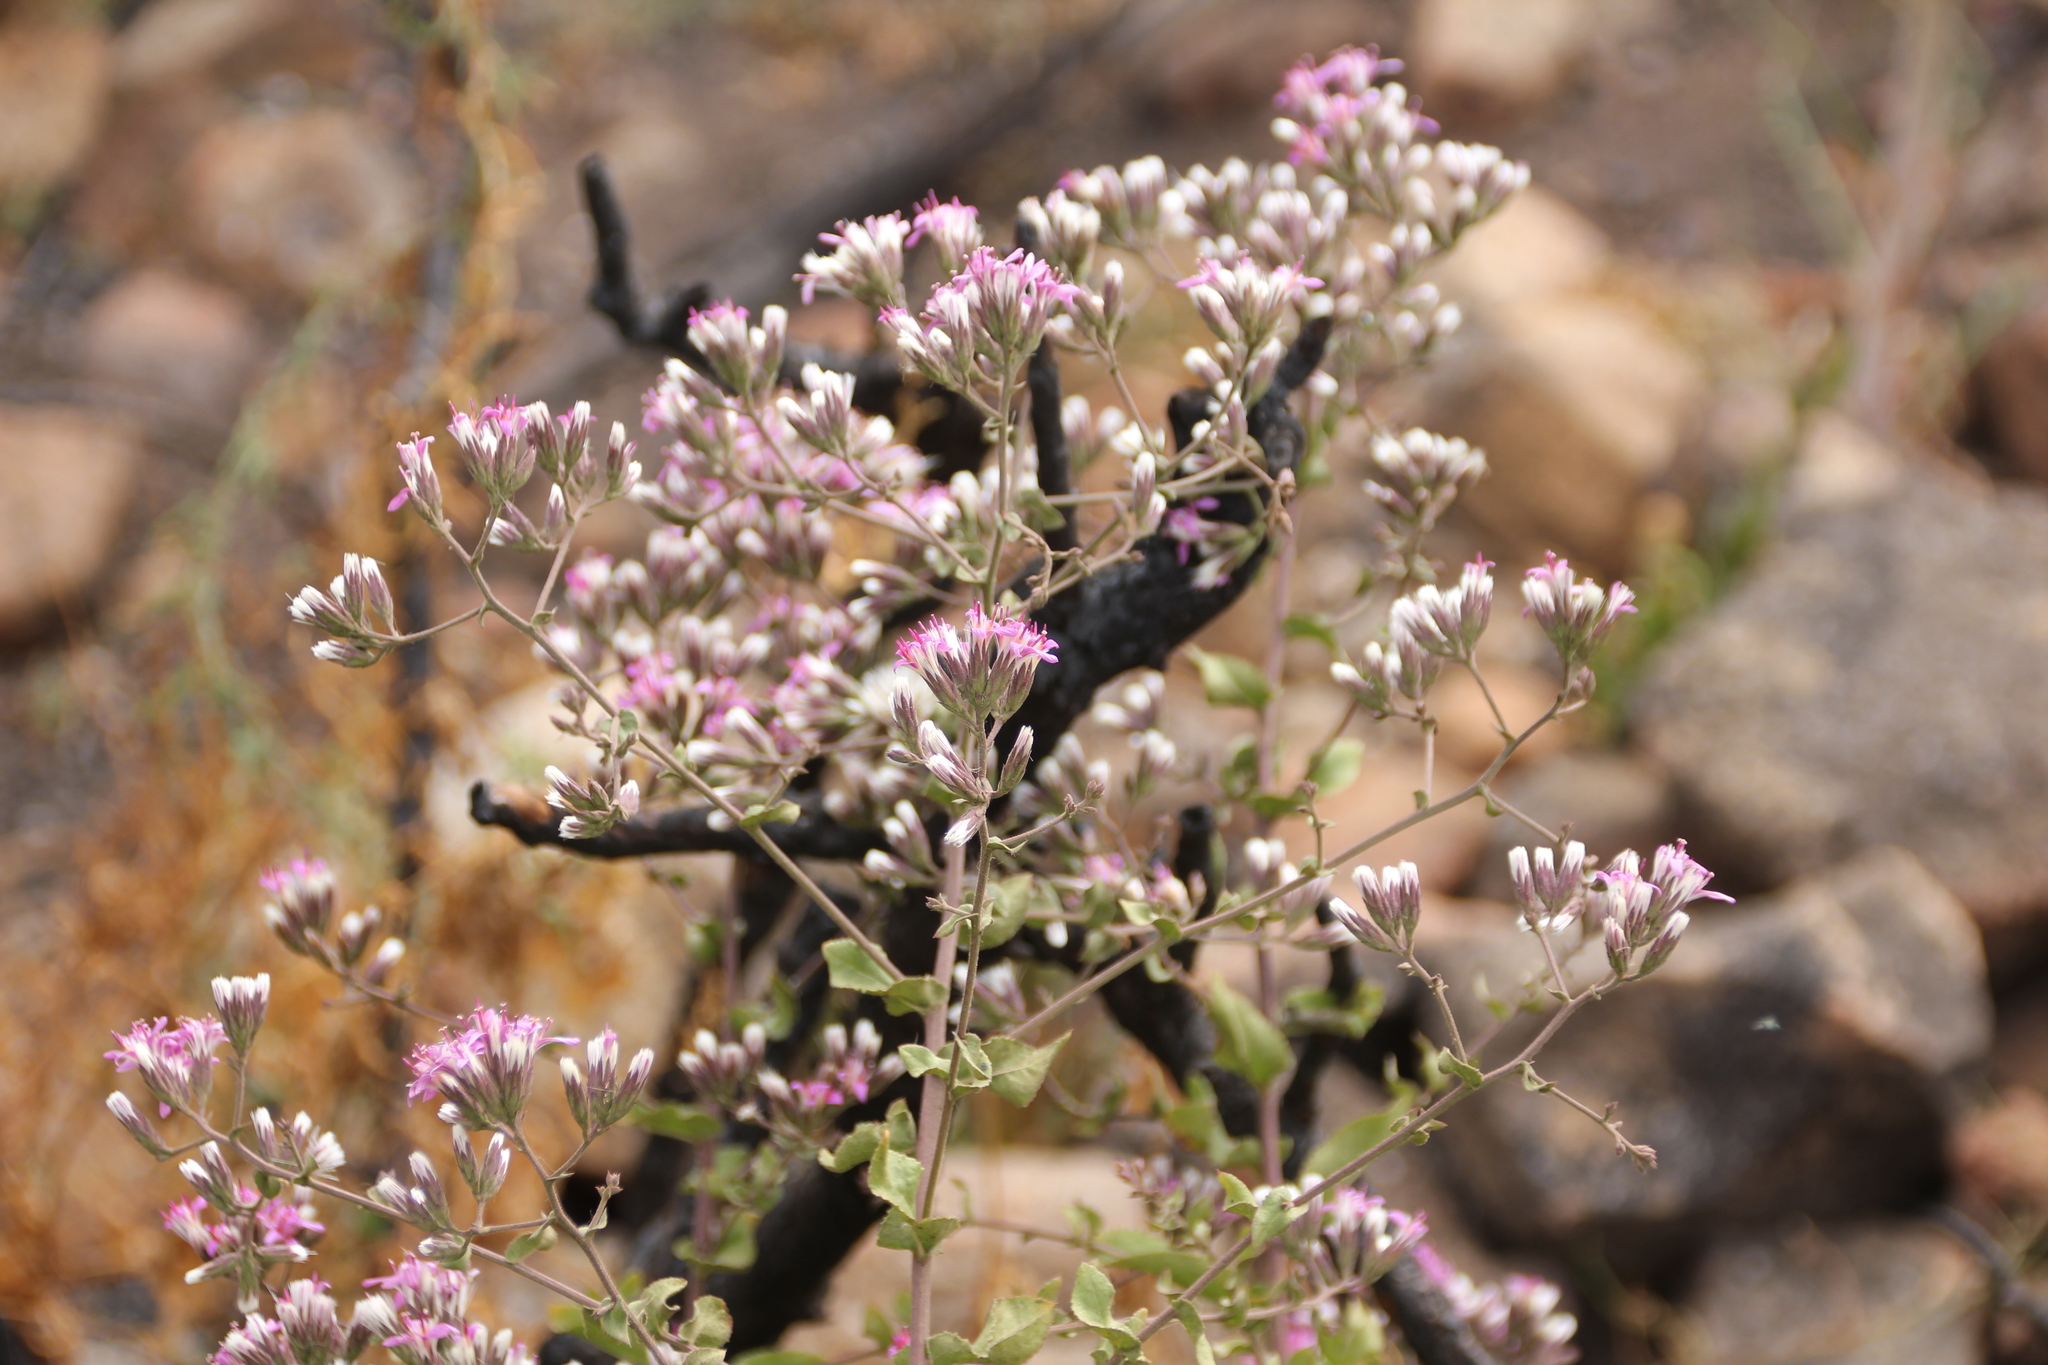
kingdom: Plantae
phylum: Tracheophyta
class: Magnoliopsida
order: Asterales
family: Asteraceae
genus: Acourtia
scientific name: Acourtia microcephala
